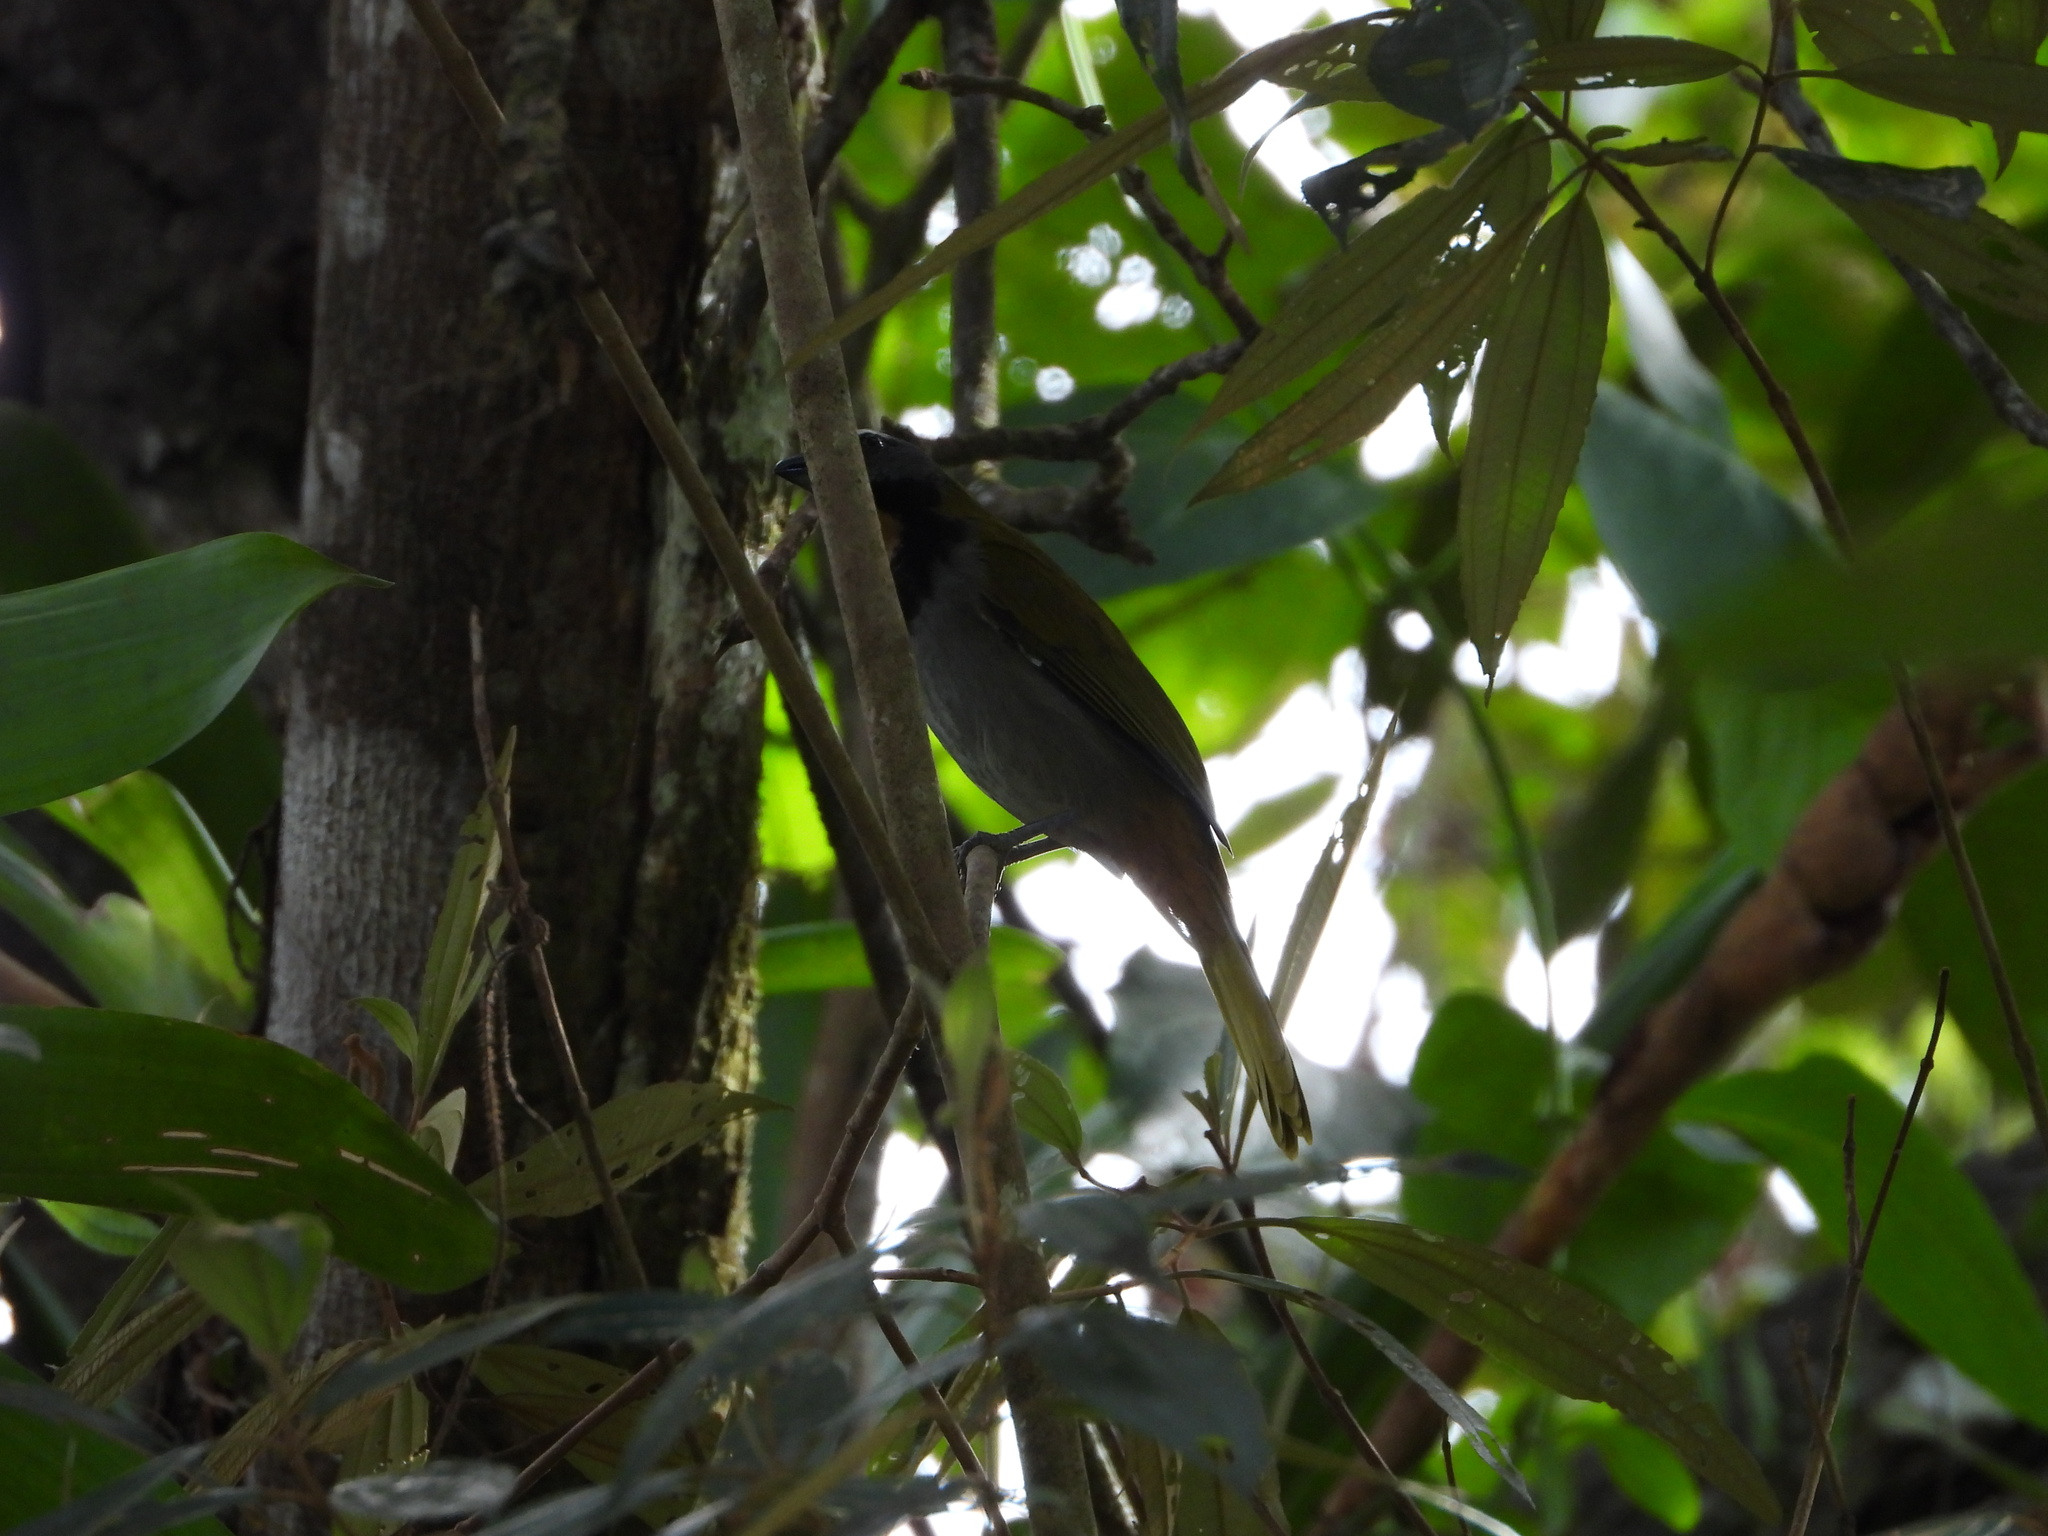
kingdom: Animalia
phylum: Chordata
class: Aves
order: Passeriformes
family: Thraupidae
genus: Saltator
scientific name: Saltator maximus
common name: Buff-throated saltator
